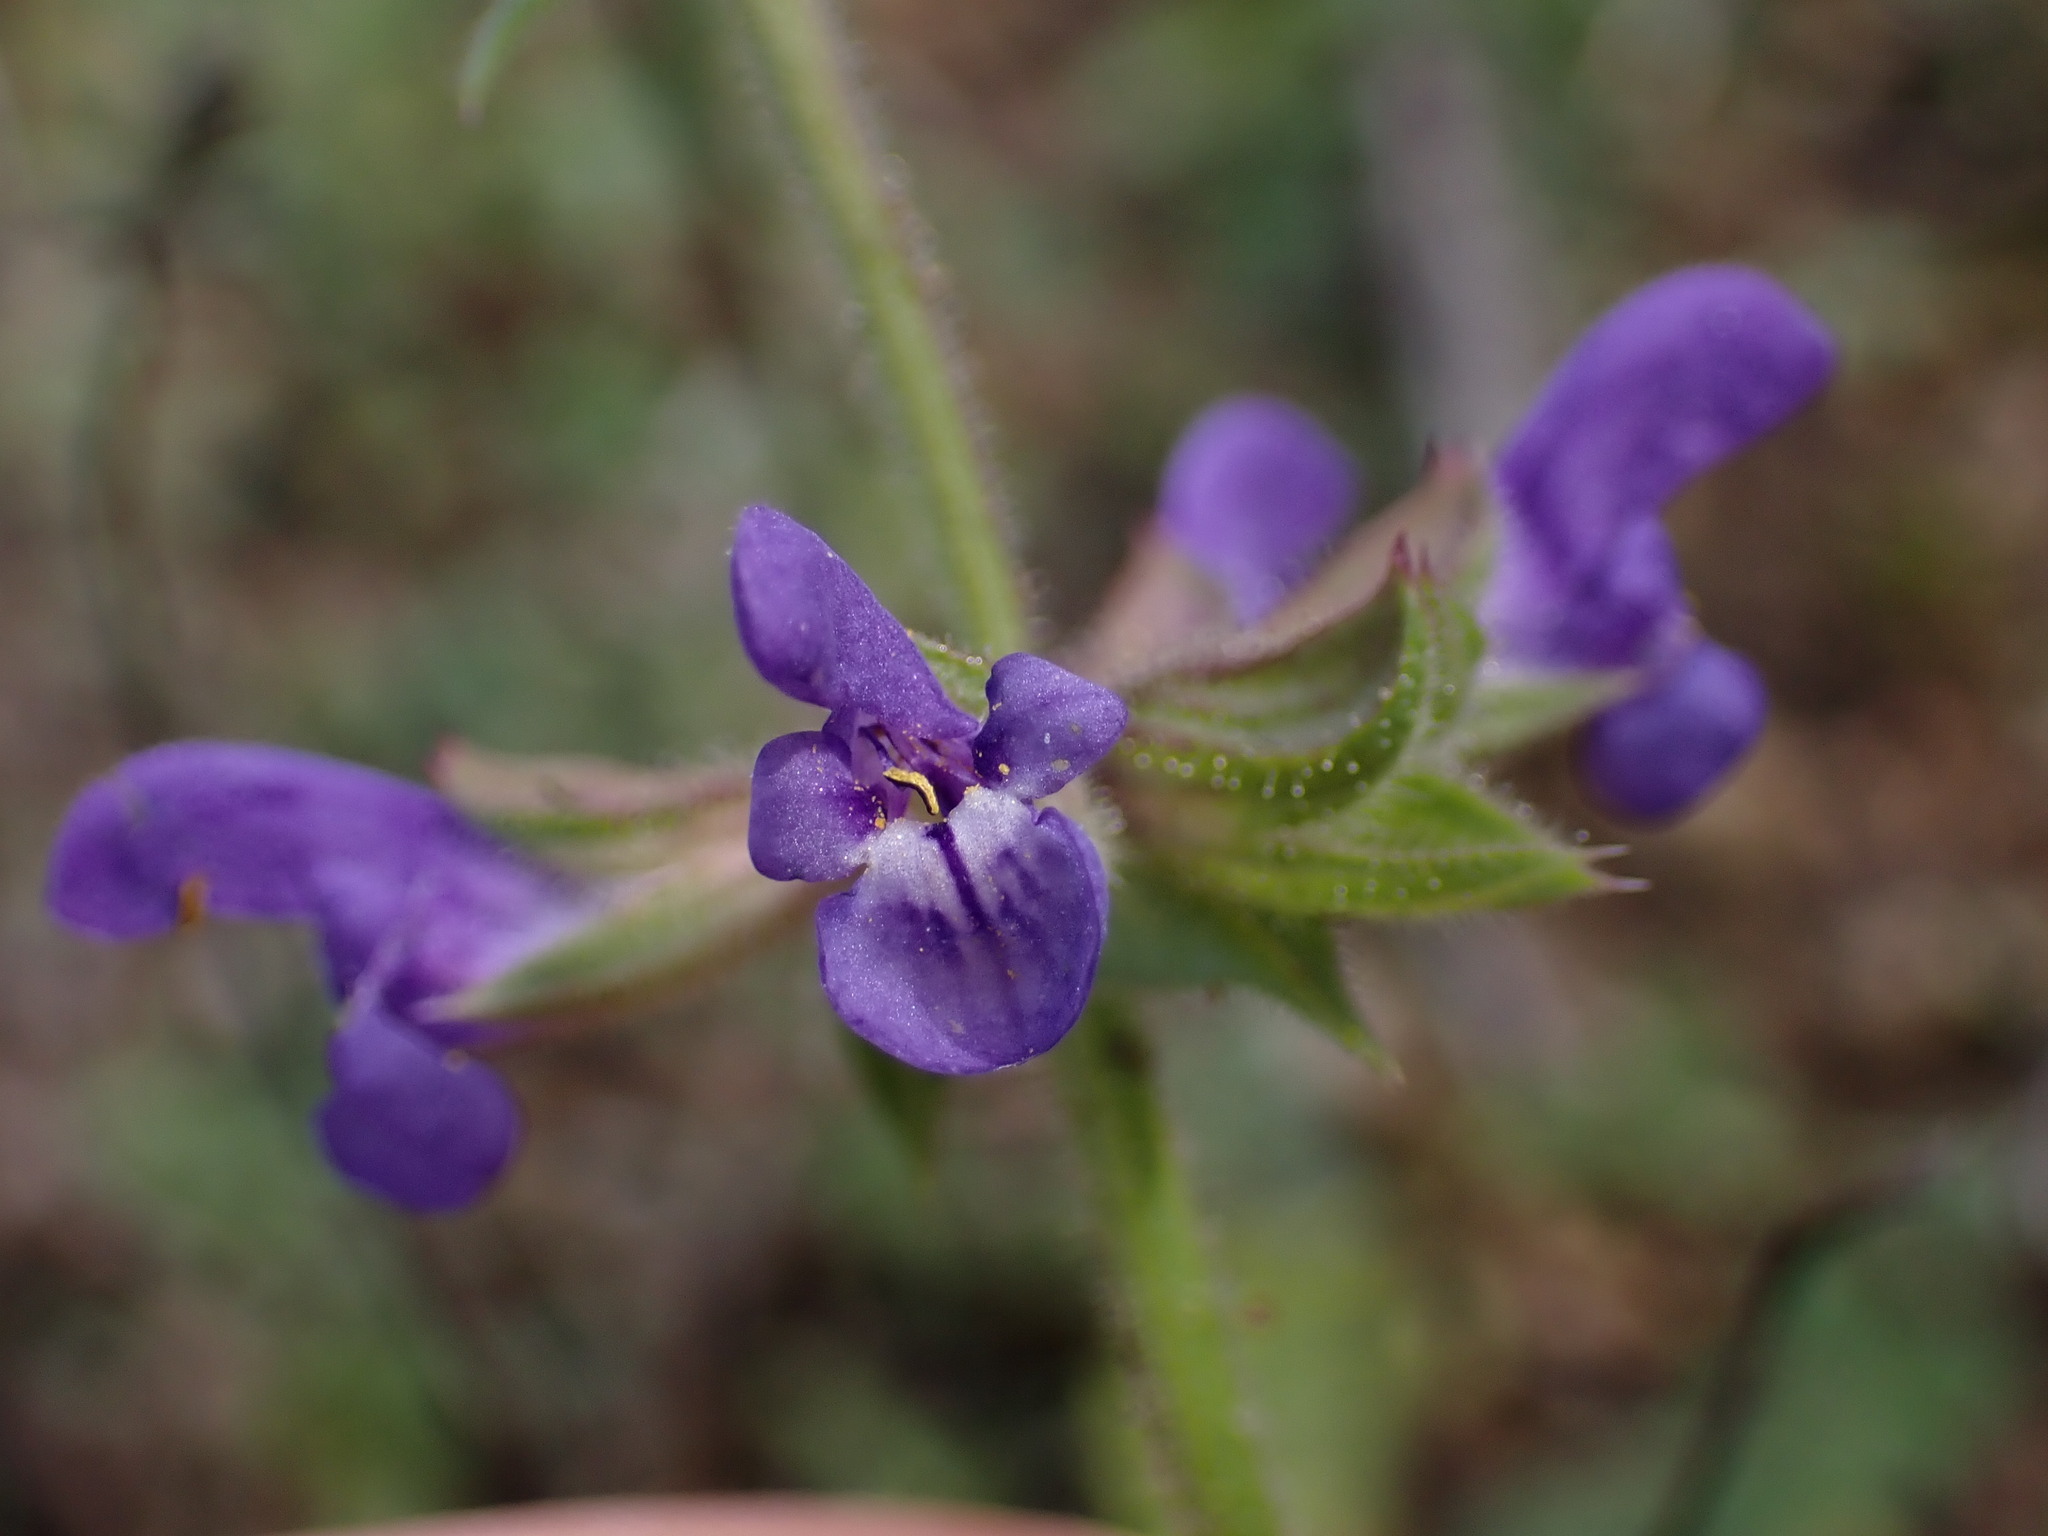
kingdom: Plantae
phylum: Tracheophyta
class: Magnoliopsida
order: Lamiales
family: Lamiaceae
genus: Salvia
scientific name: Salvia verbenaca
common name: Wild clary
